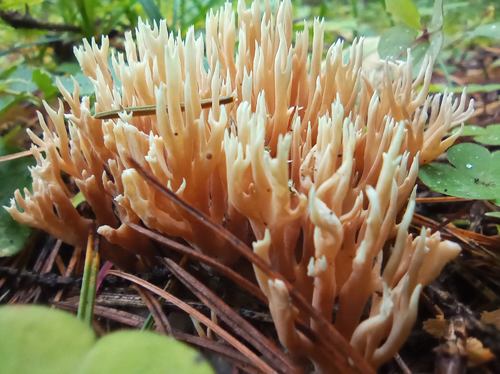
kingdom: Fungi
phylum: Basidiomycota
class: Agaricomycetes
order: Gomphales
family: Gomphaceae
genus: Ramaria
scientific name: Ramaria tsugina
